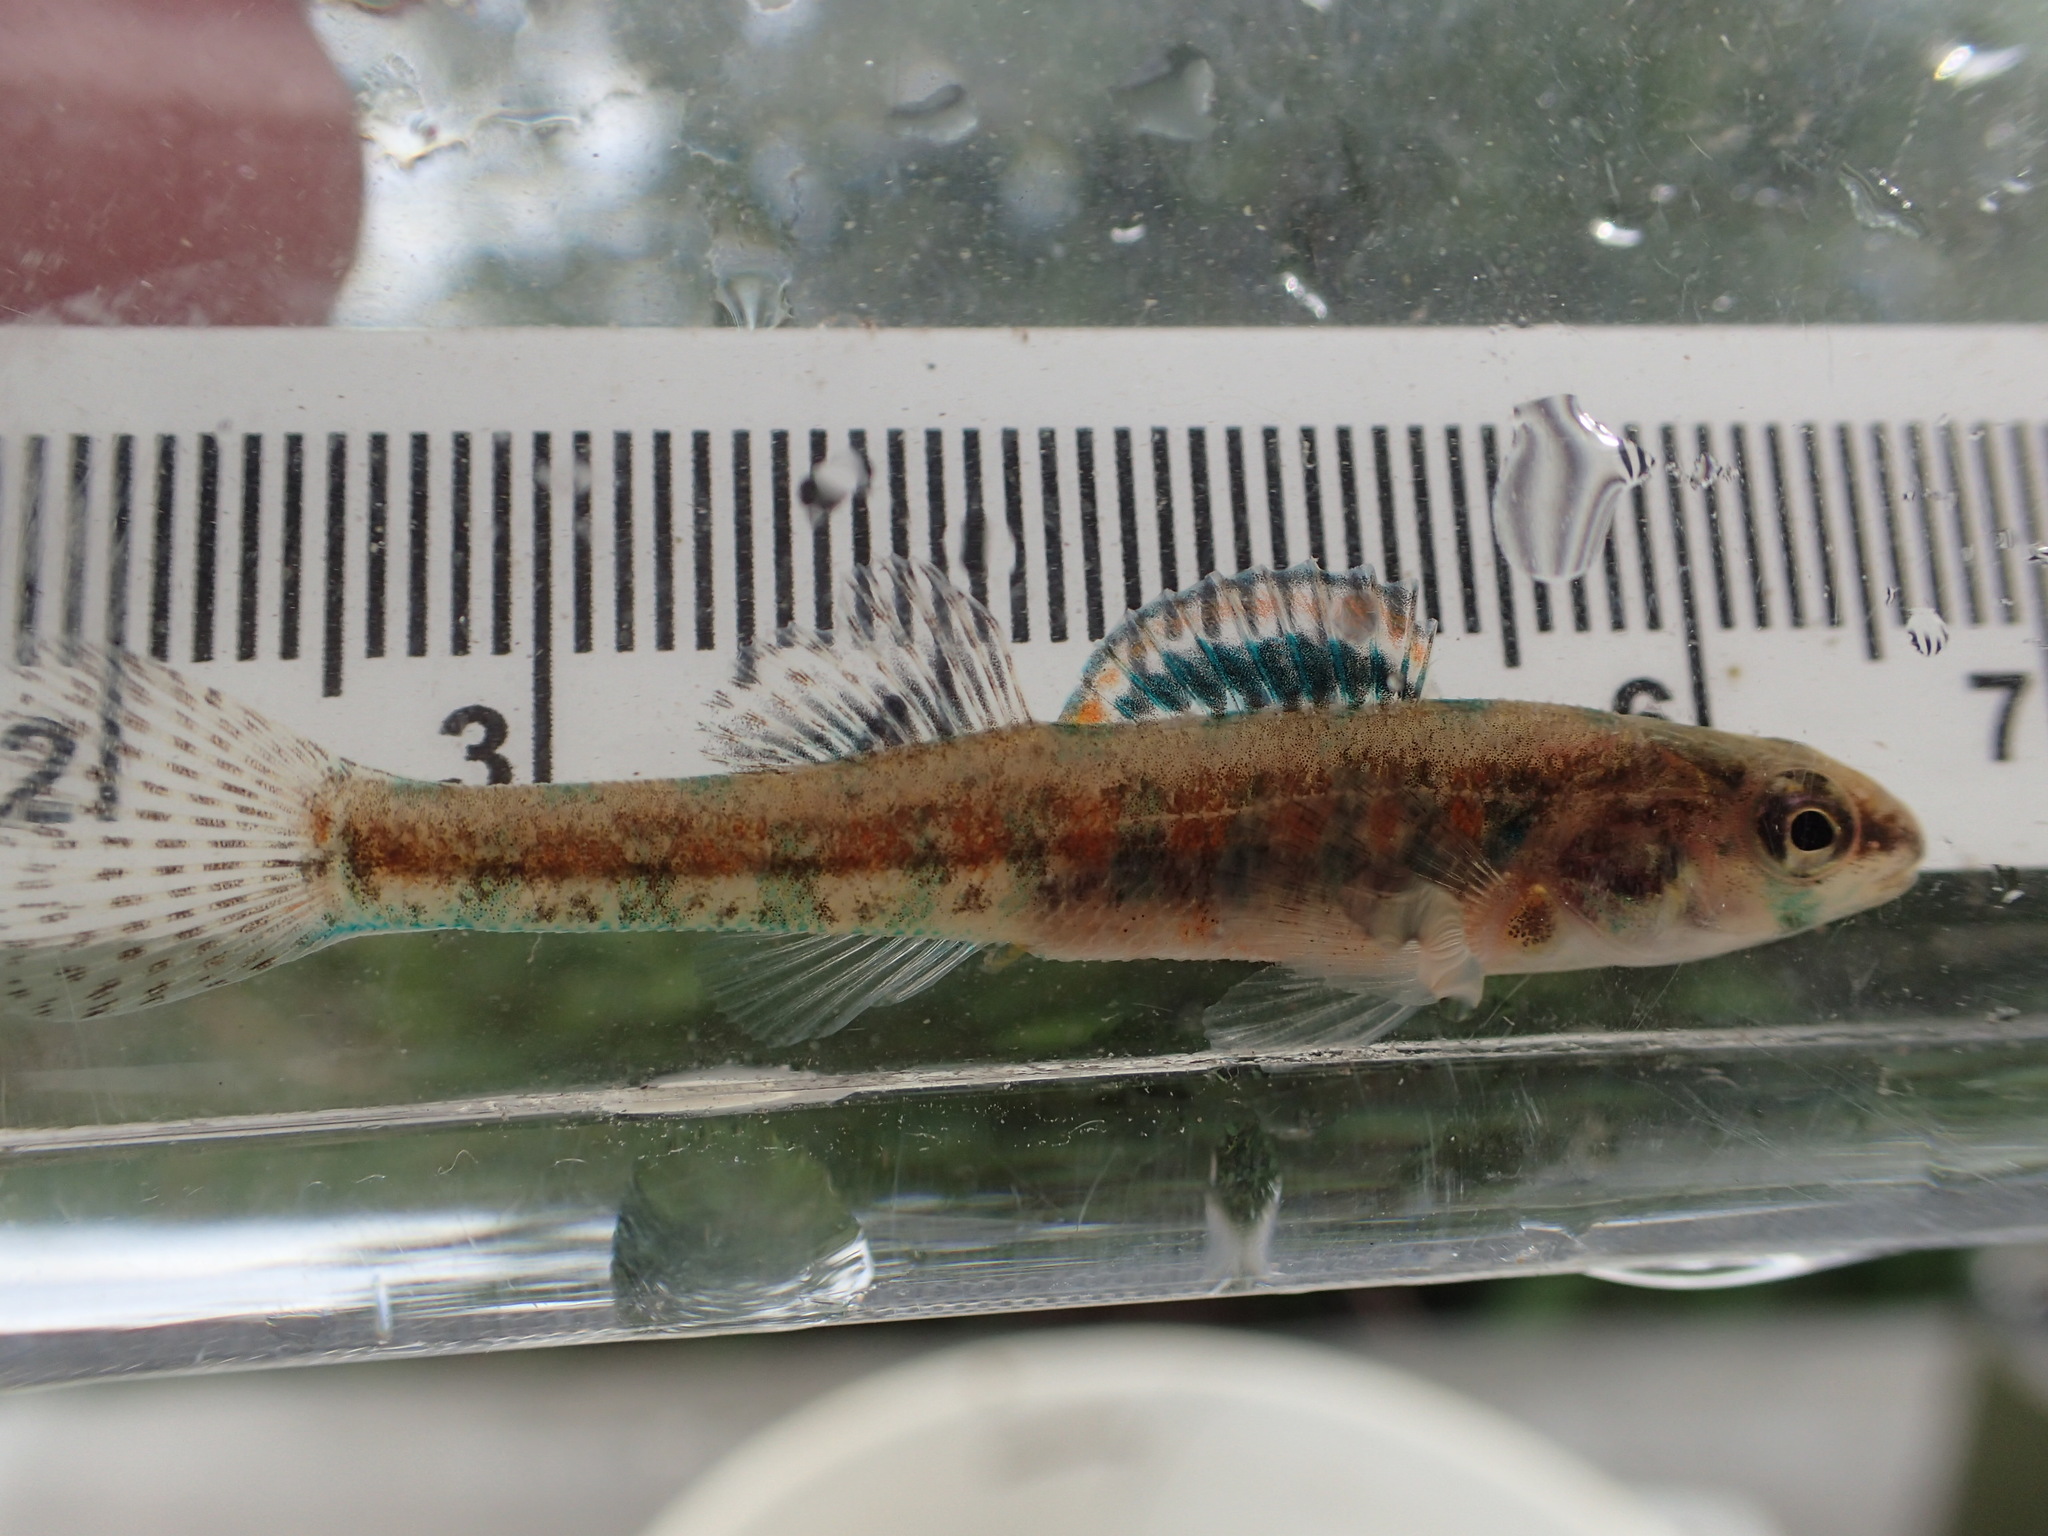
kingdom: Animalia
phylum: Chordata
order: Perciformes
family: Percidae
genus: Etheostoma
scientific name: Etheostoma exile
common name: Iowa darter
